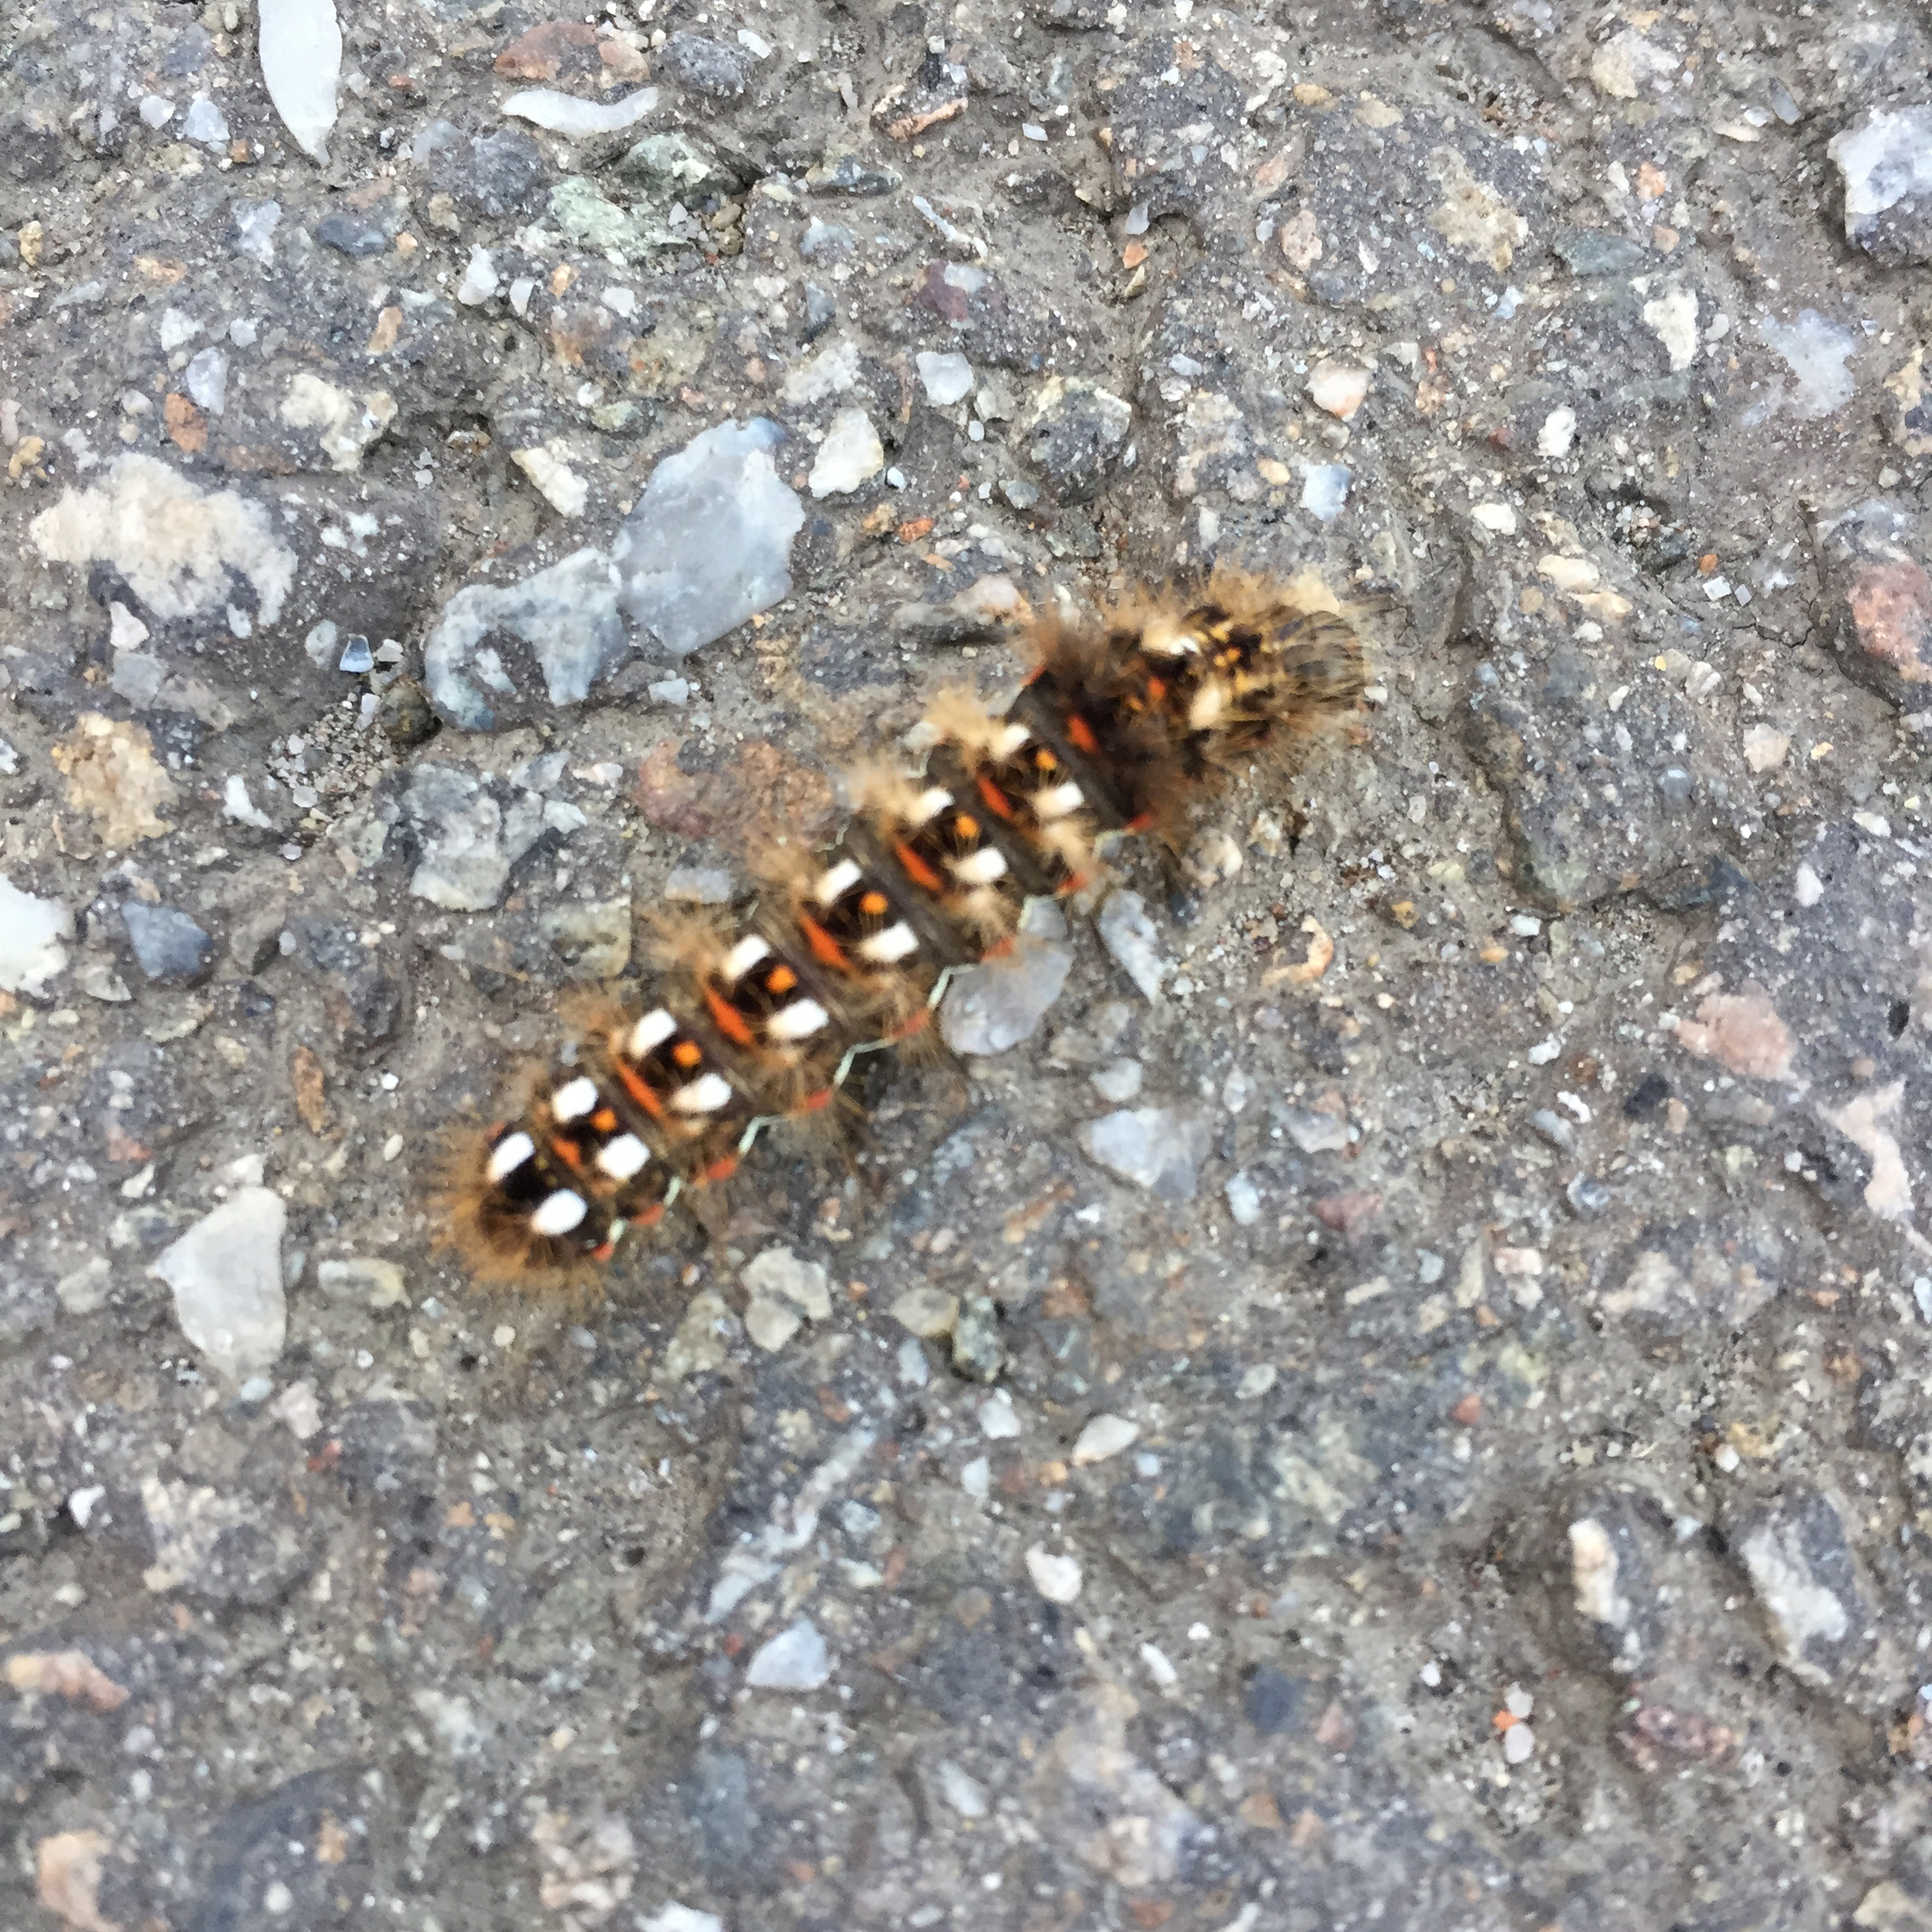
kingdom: Animalia
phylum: Arthropoda
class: Insecta
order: Lepidoptera
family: Noctuidae
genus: Acronicta
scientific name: Acronicta rumicis
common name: Knot grass
